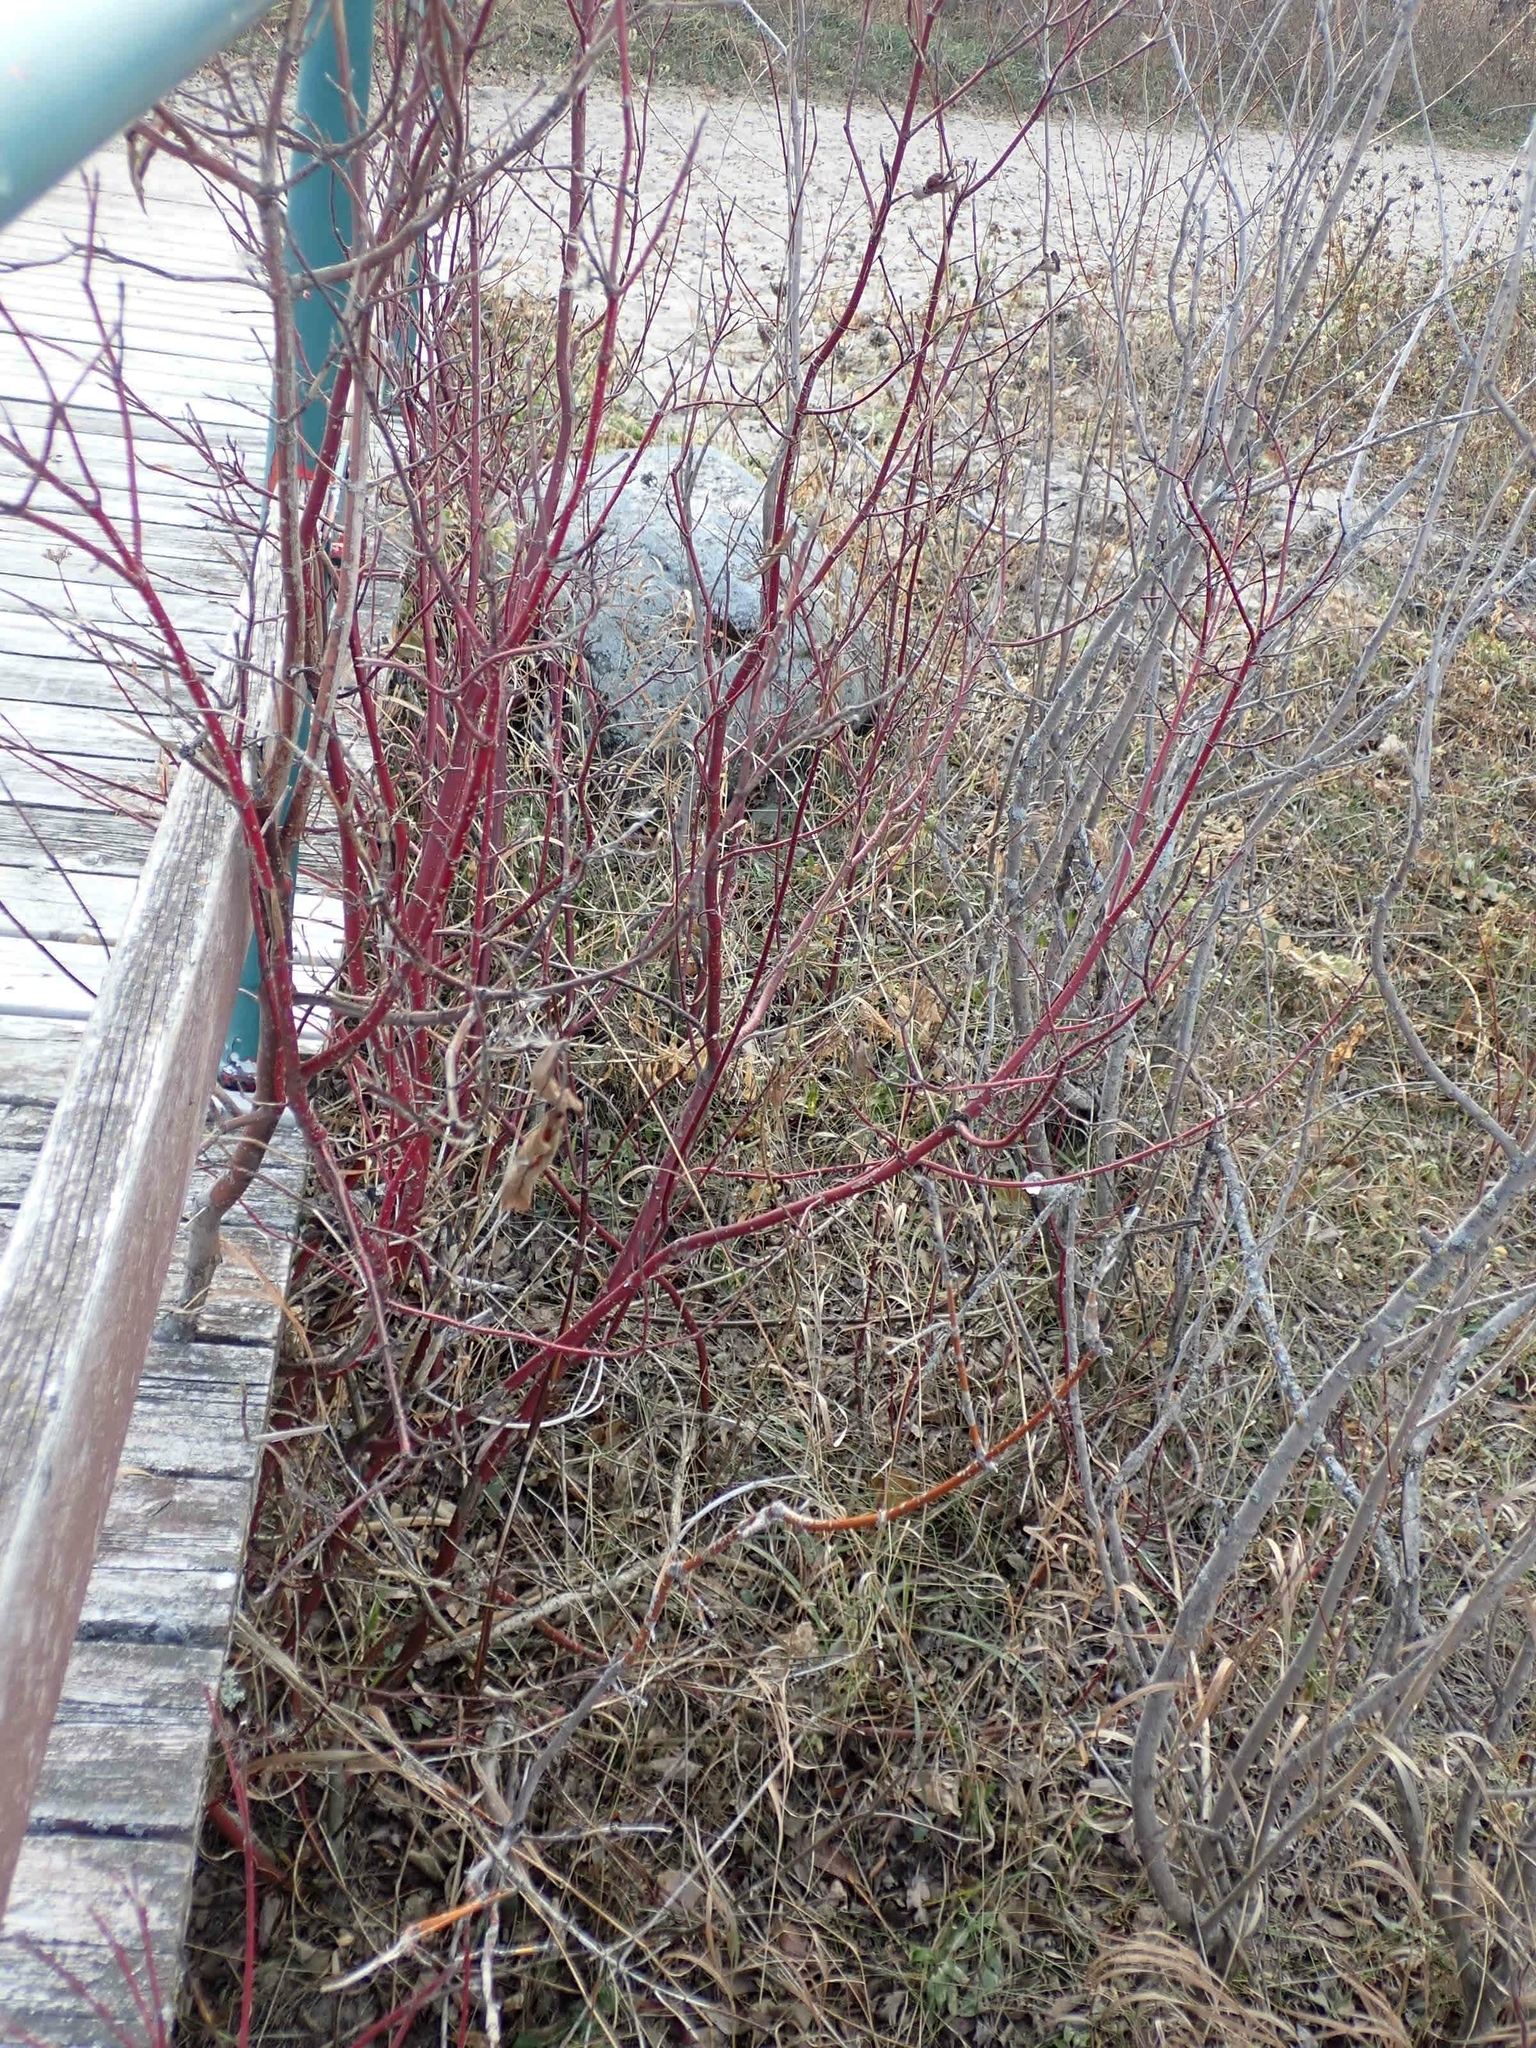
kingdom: Plantae
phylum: Tracheophyta
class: Magnoliopsida
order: Cornales
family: Cornaceae
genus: Cornus
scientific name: Cornus sericea
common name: Red-osier dogwood
